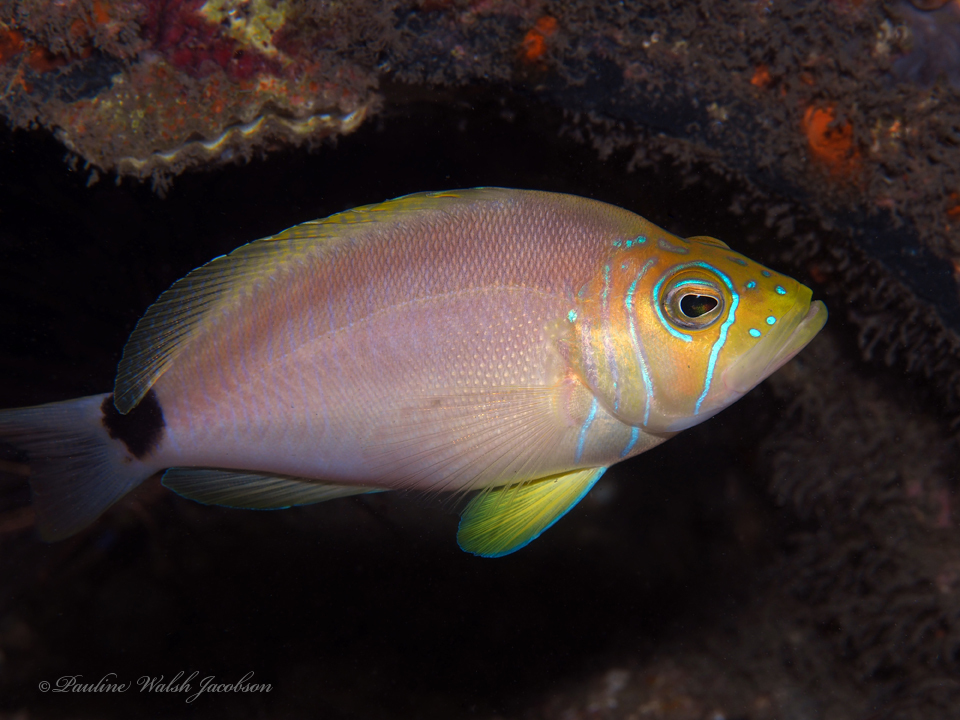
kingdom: Animalia
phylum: Chordata
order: Perciformes
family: Serranidae
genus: Hypoplectrus
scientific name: Hypoplectrus unicolor
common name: Butter hamlet
